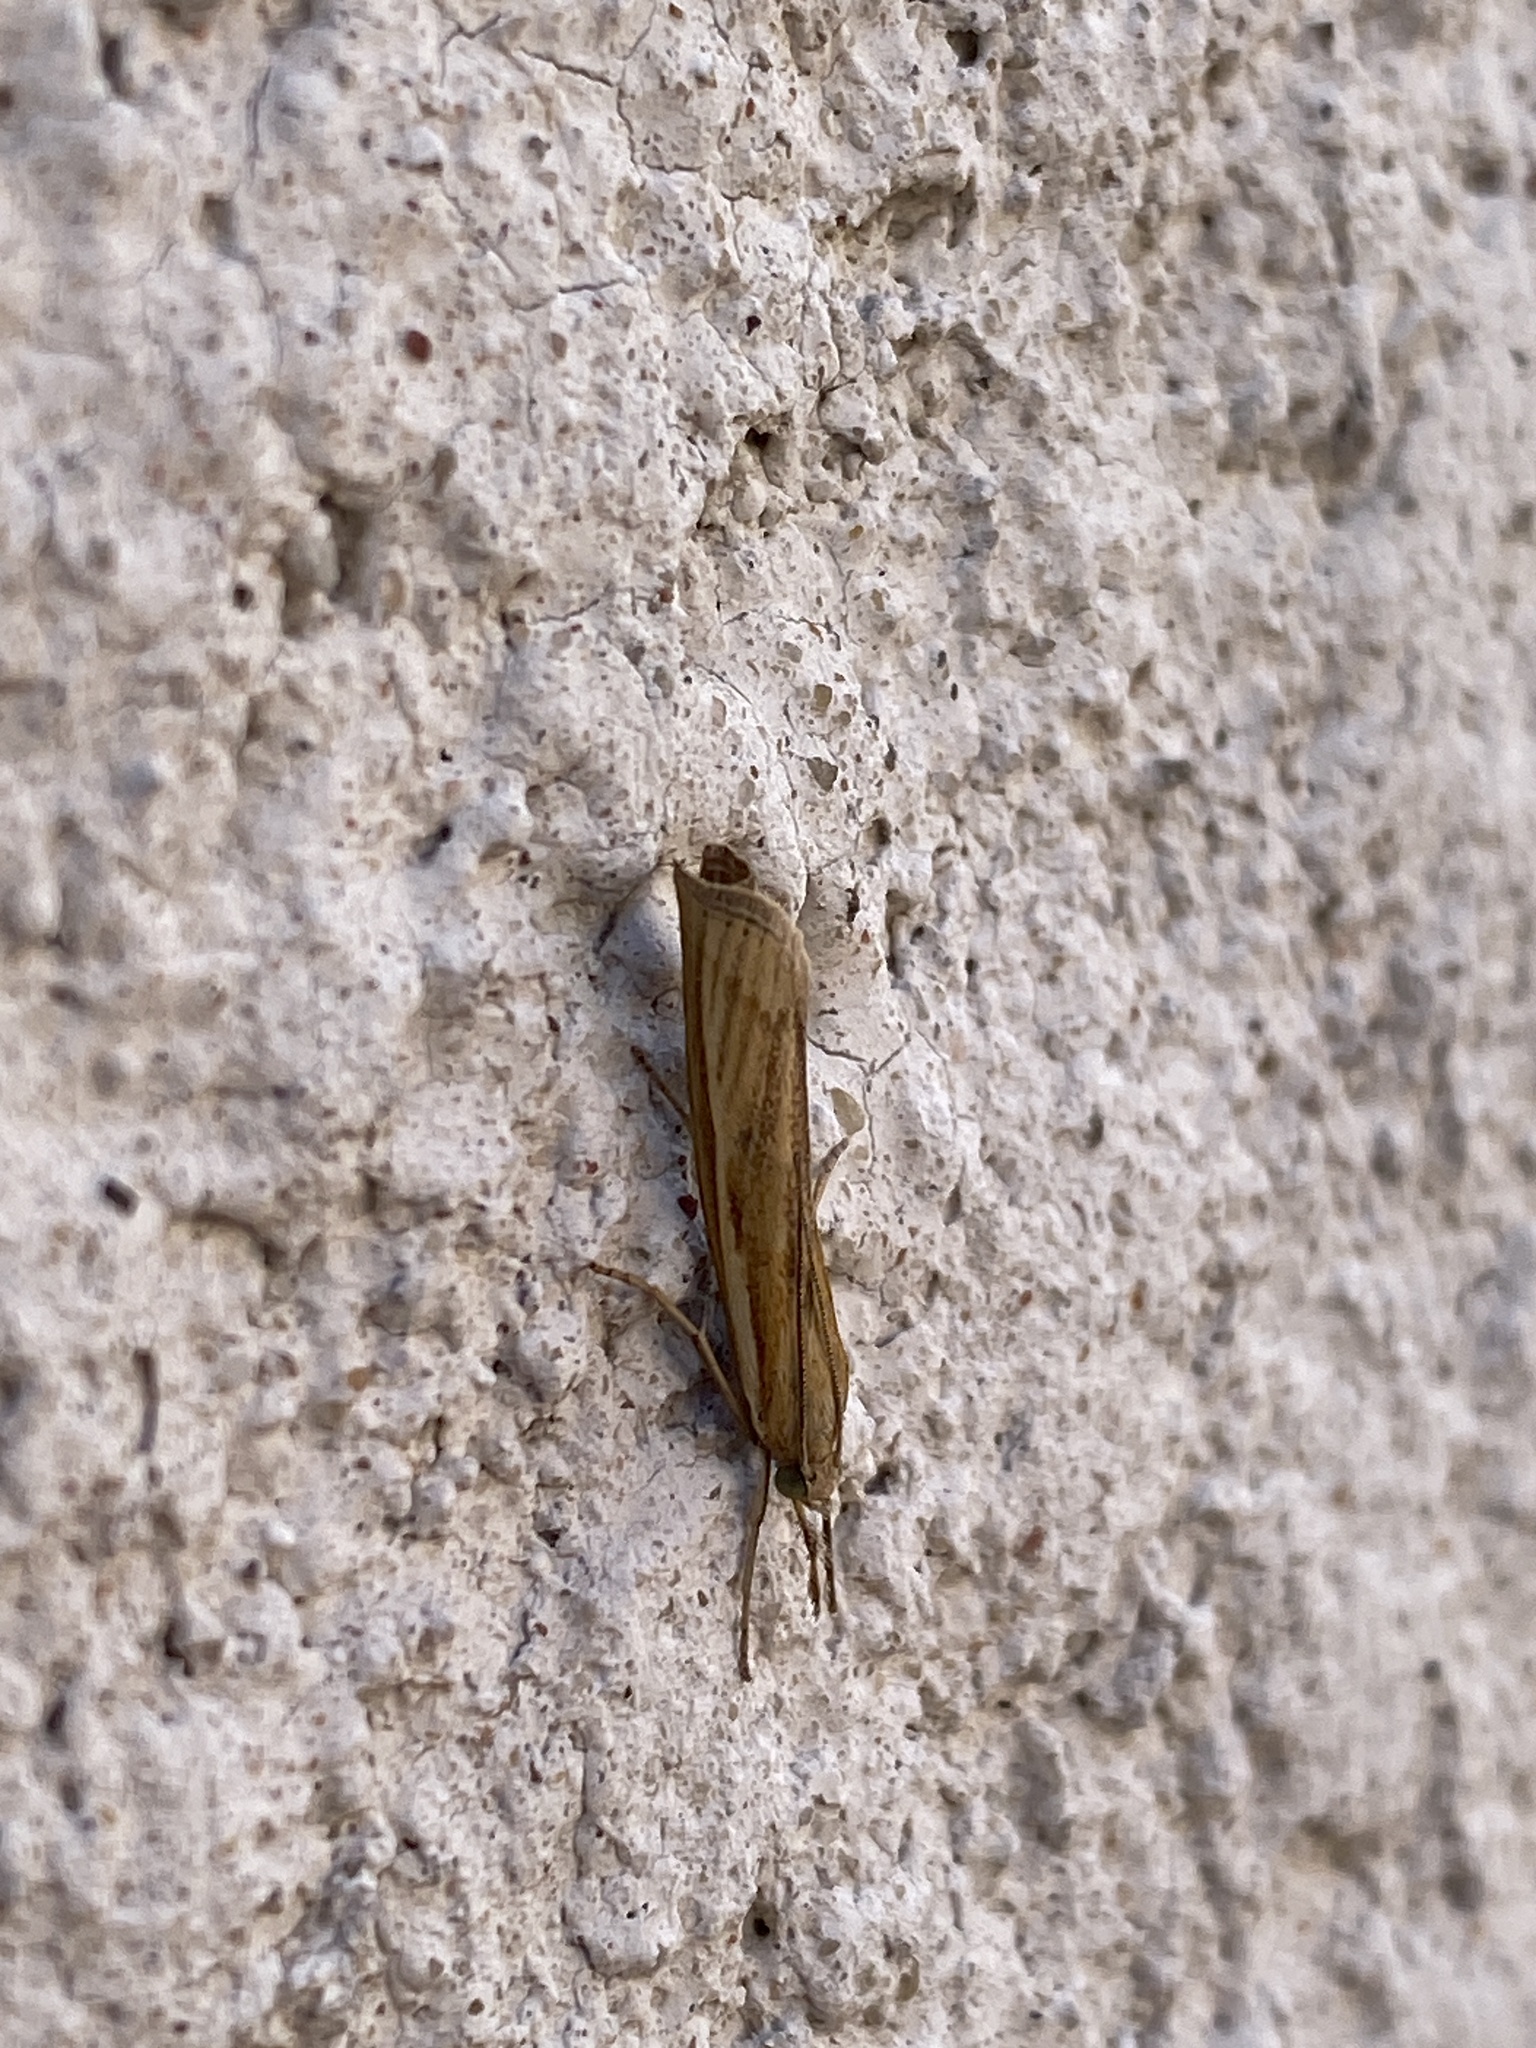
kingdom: Animalia
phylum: Arthropoda
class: Insecta
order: Lepidoptera
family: Crambidae
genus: Agriphila
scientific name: Agriphila tristellus
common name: Common grass-veneer
